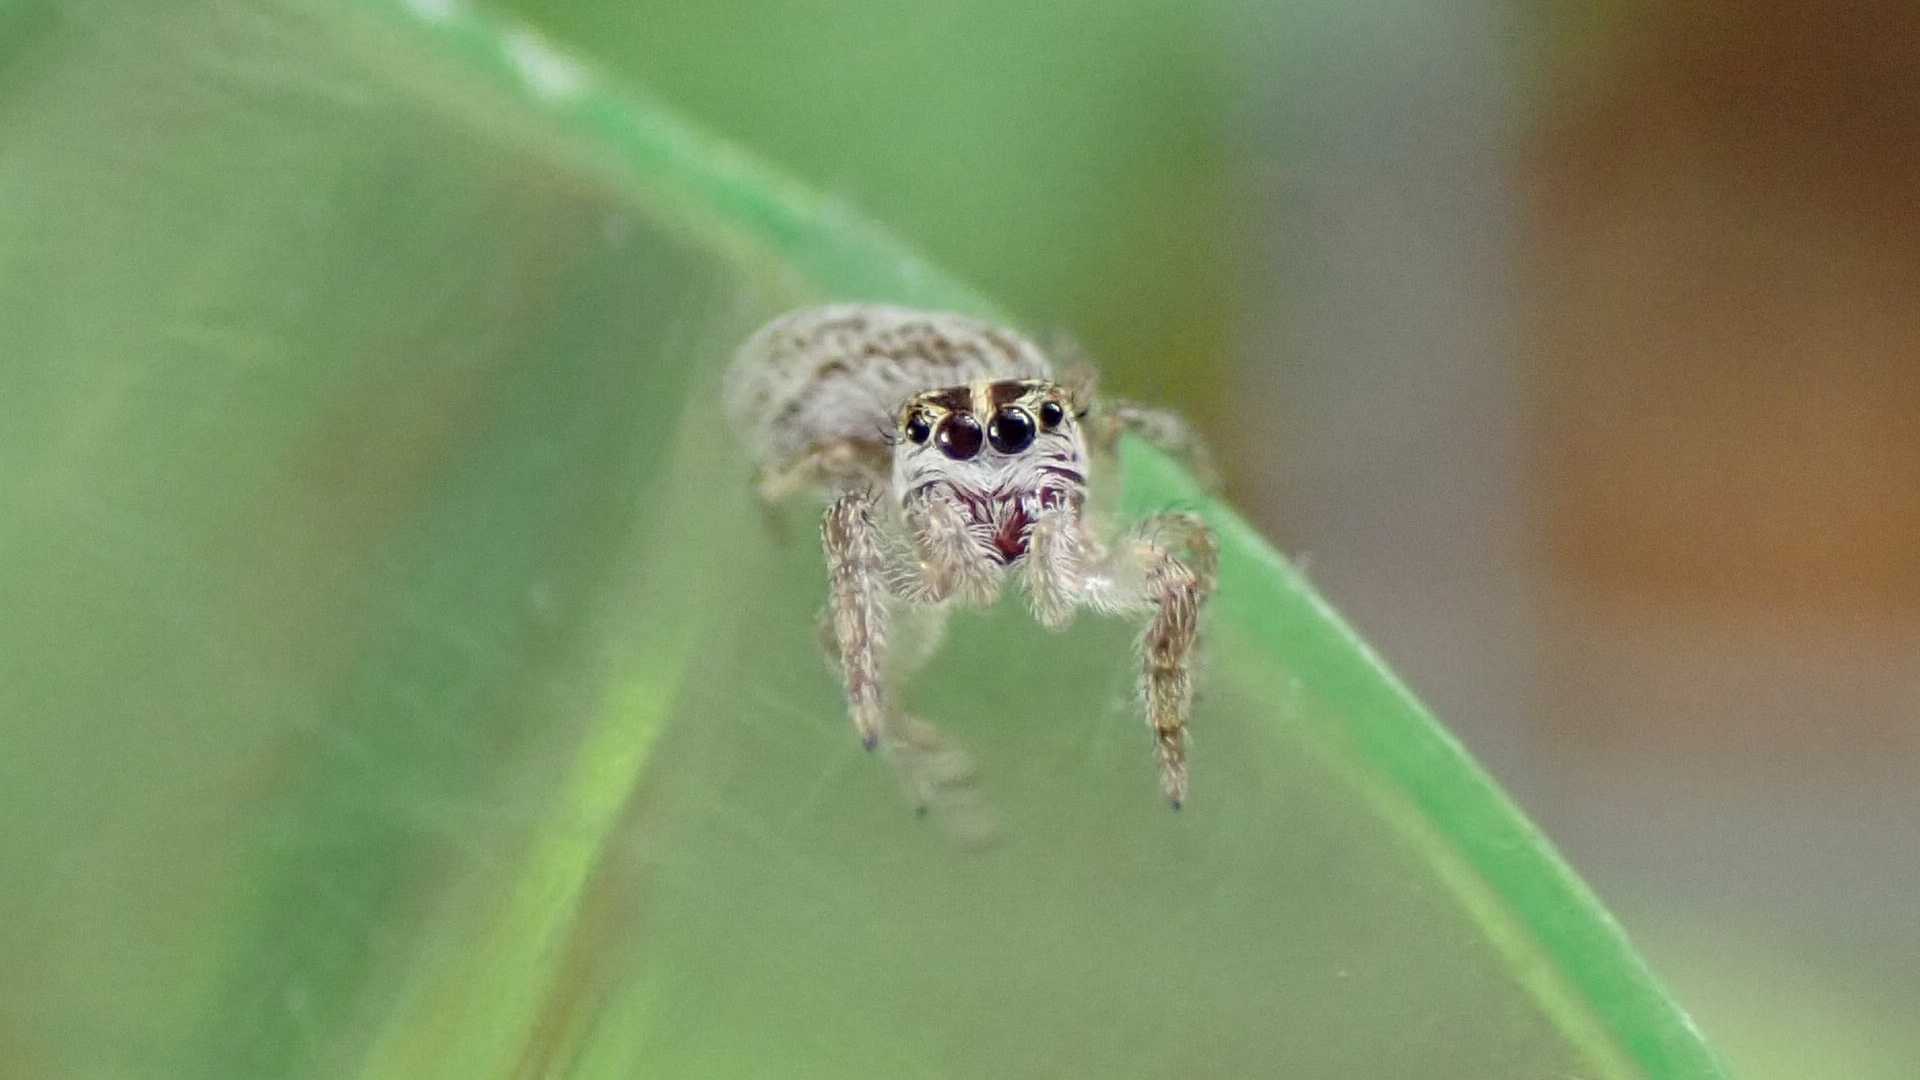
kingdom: Animalia
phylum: Arthropoda
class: Arachnida
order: Araneae
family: Salticidae
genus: Macaroeris
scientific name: Macaroeris nidicolens
